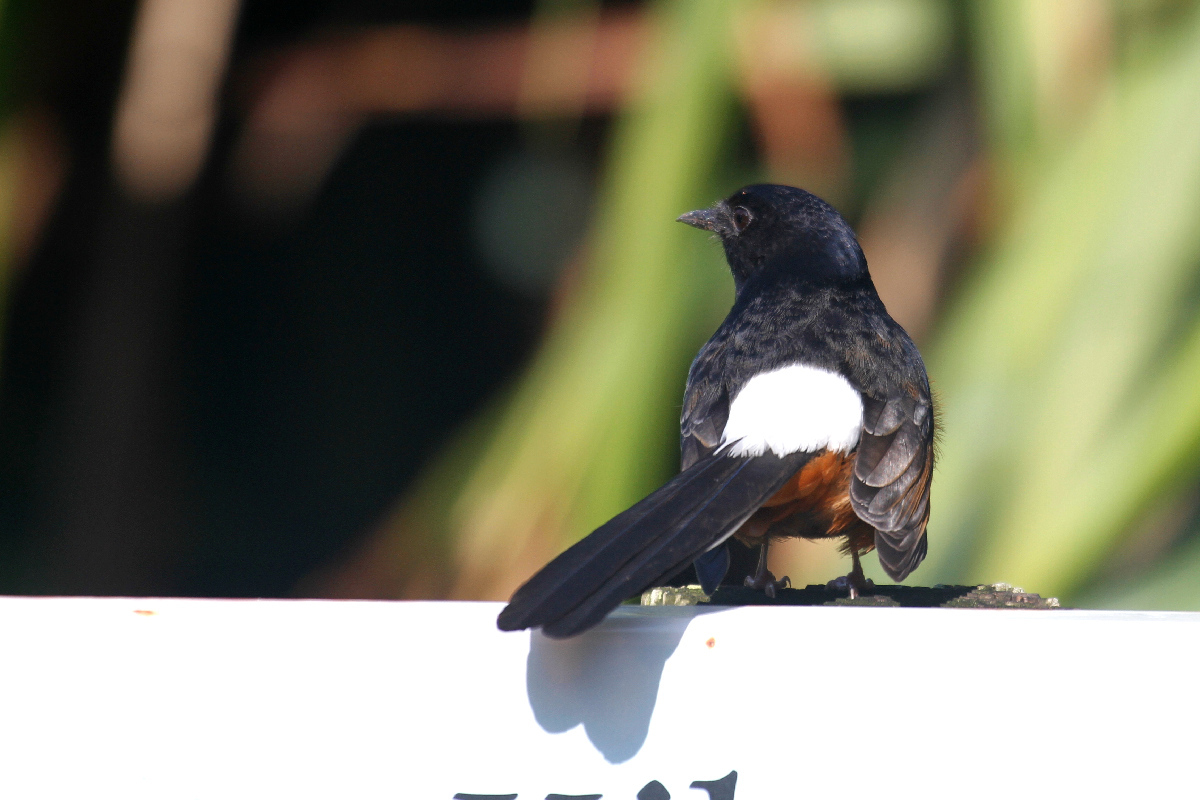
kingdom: Animalia
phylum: Chordata
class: Aves
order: Passeriformes
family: Muscicapidae
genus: Copsychus
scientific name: Copsychus malabaricus
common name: White-rumped shama
